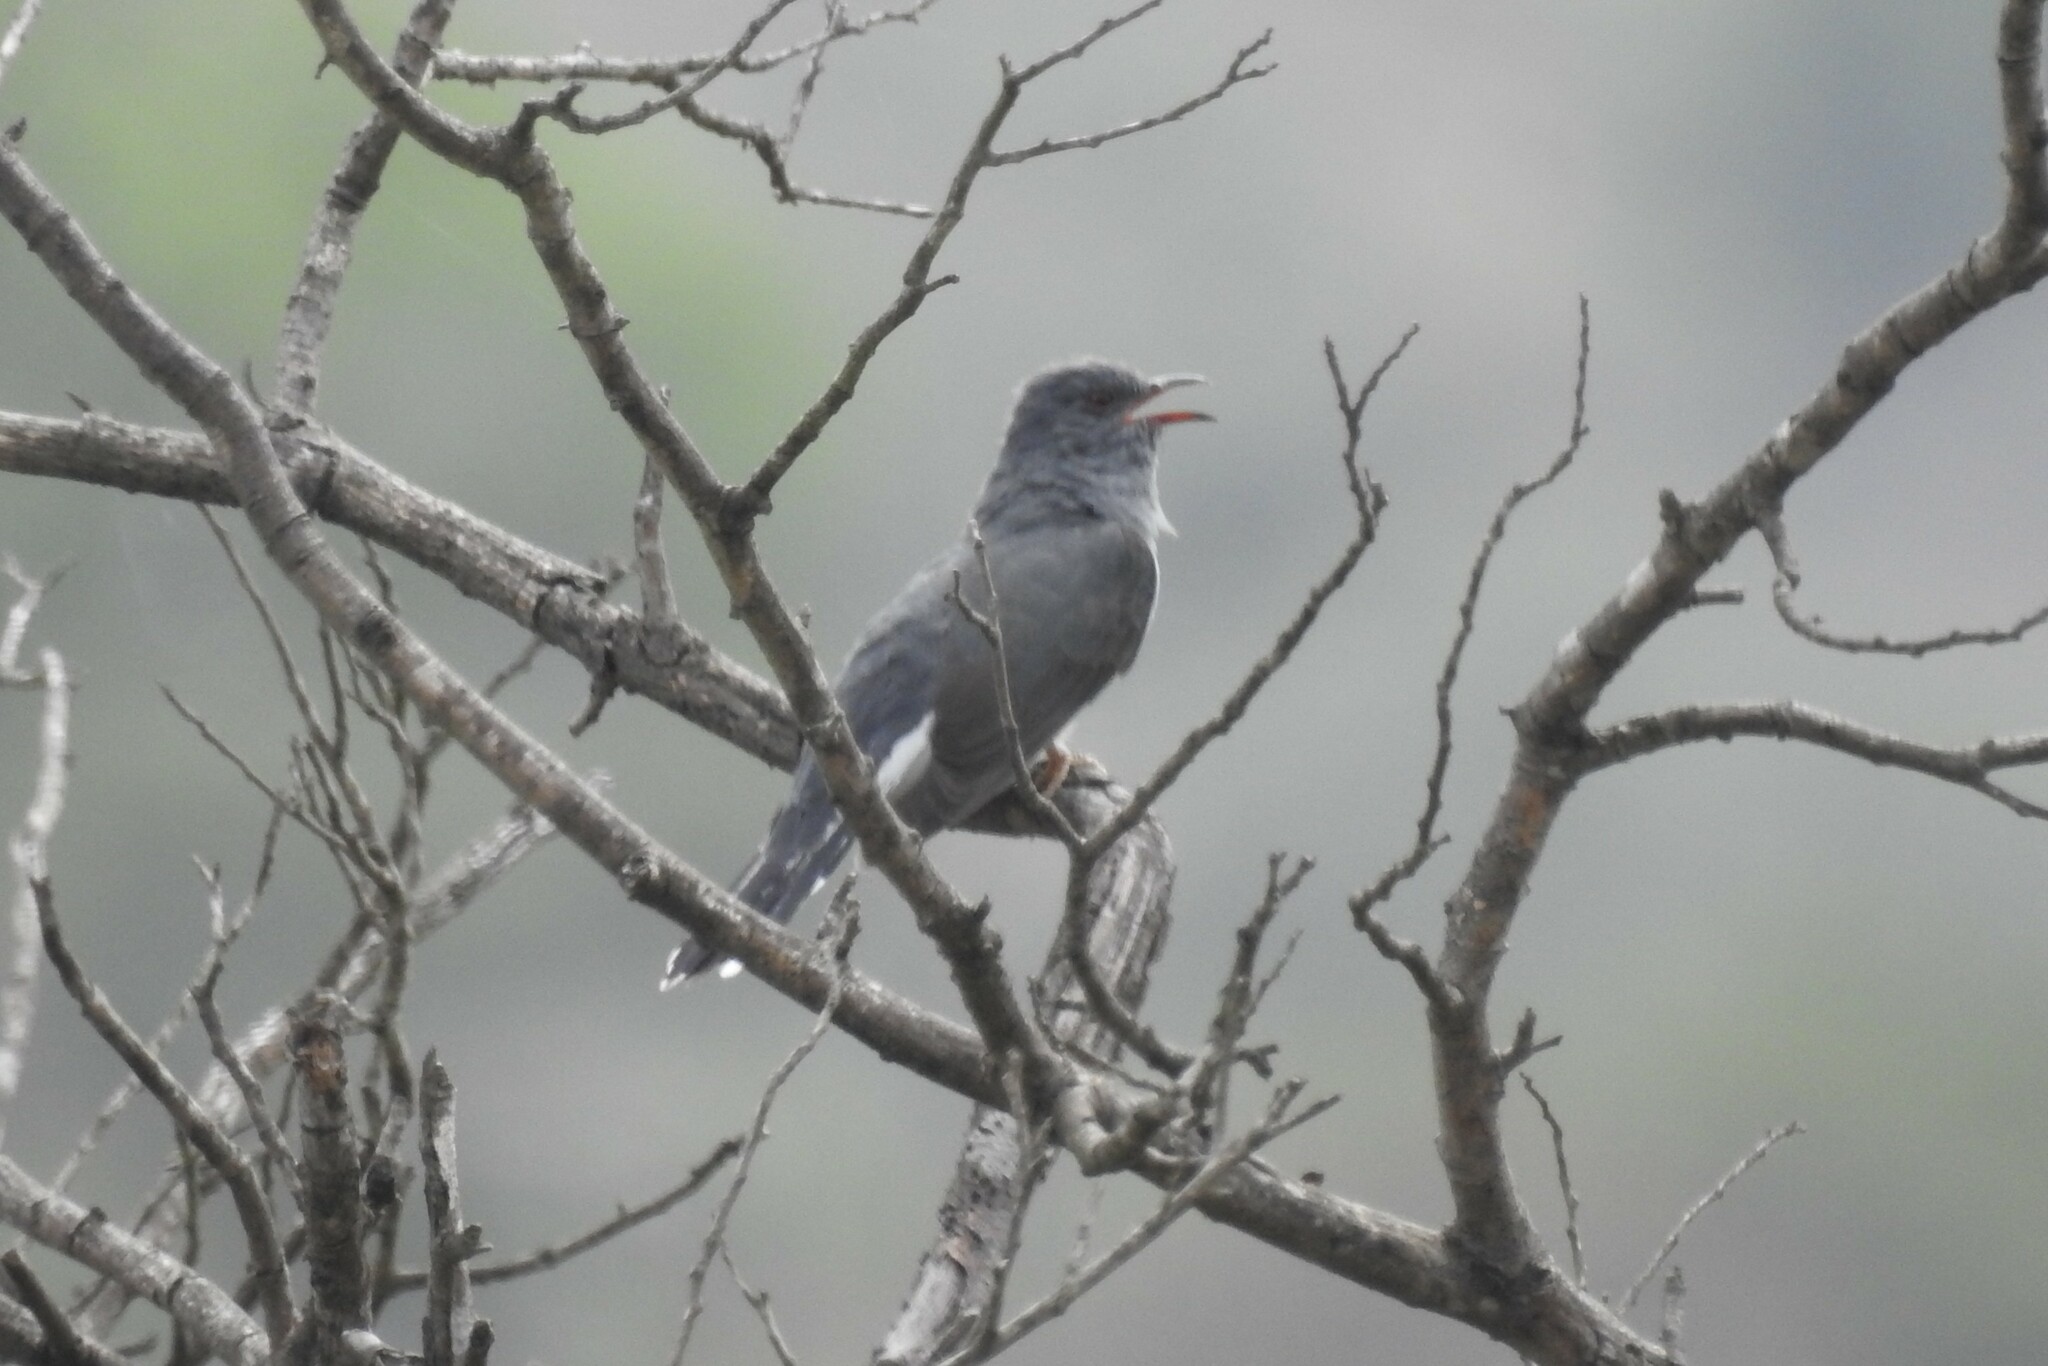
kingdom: Animalia
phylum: Chordata
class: Aves
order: Cuculiformes
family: Cuculidae
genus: Cacomantis
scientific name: Cacomantis passerinus
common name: Grey-bellied cuckoo
